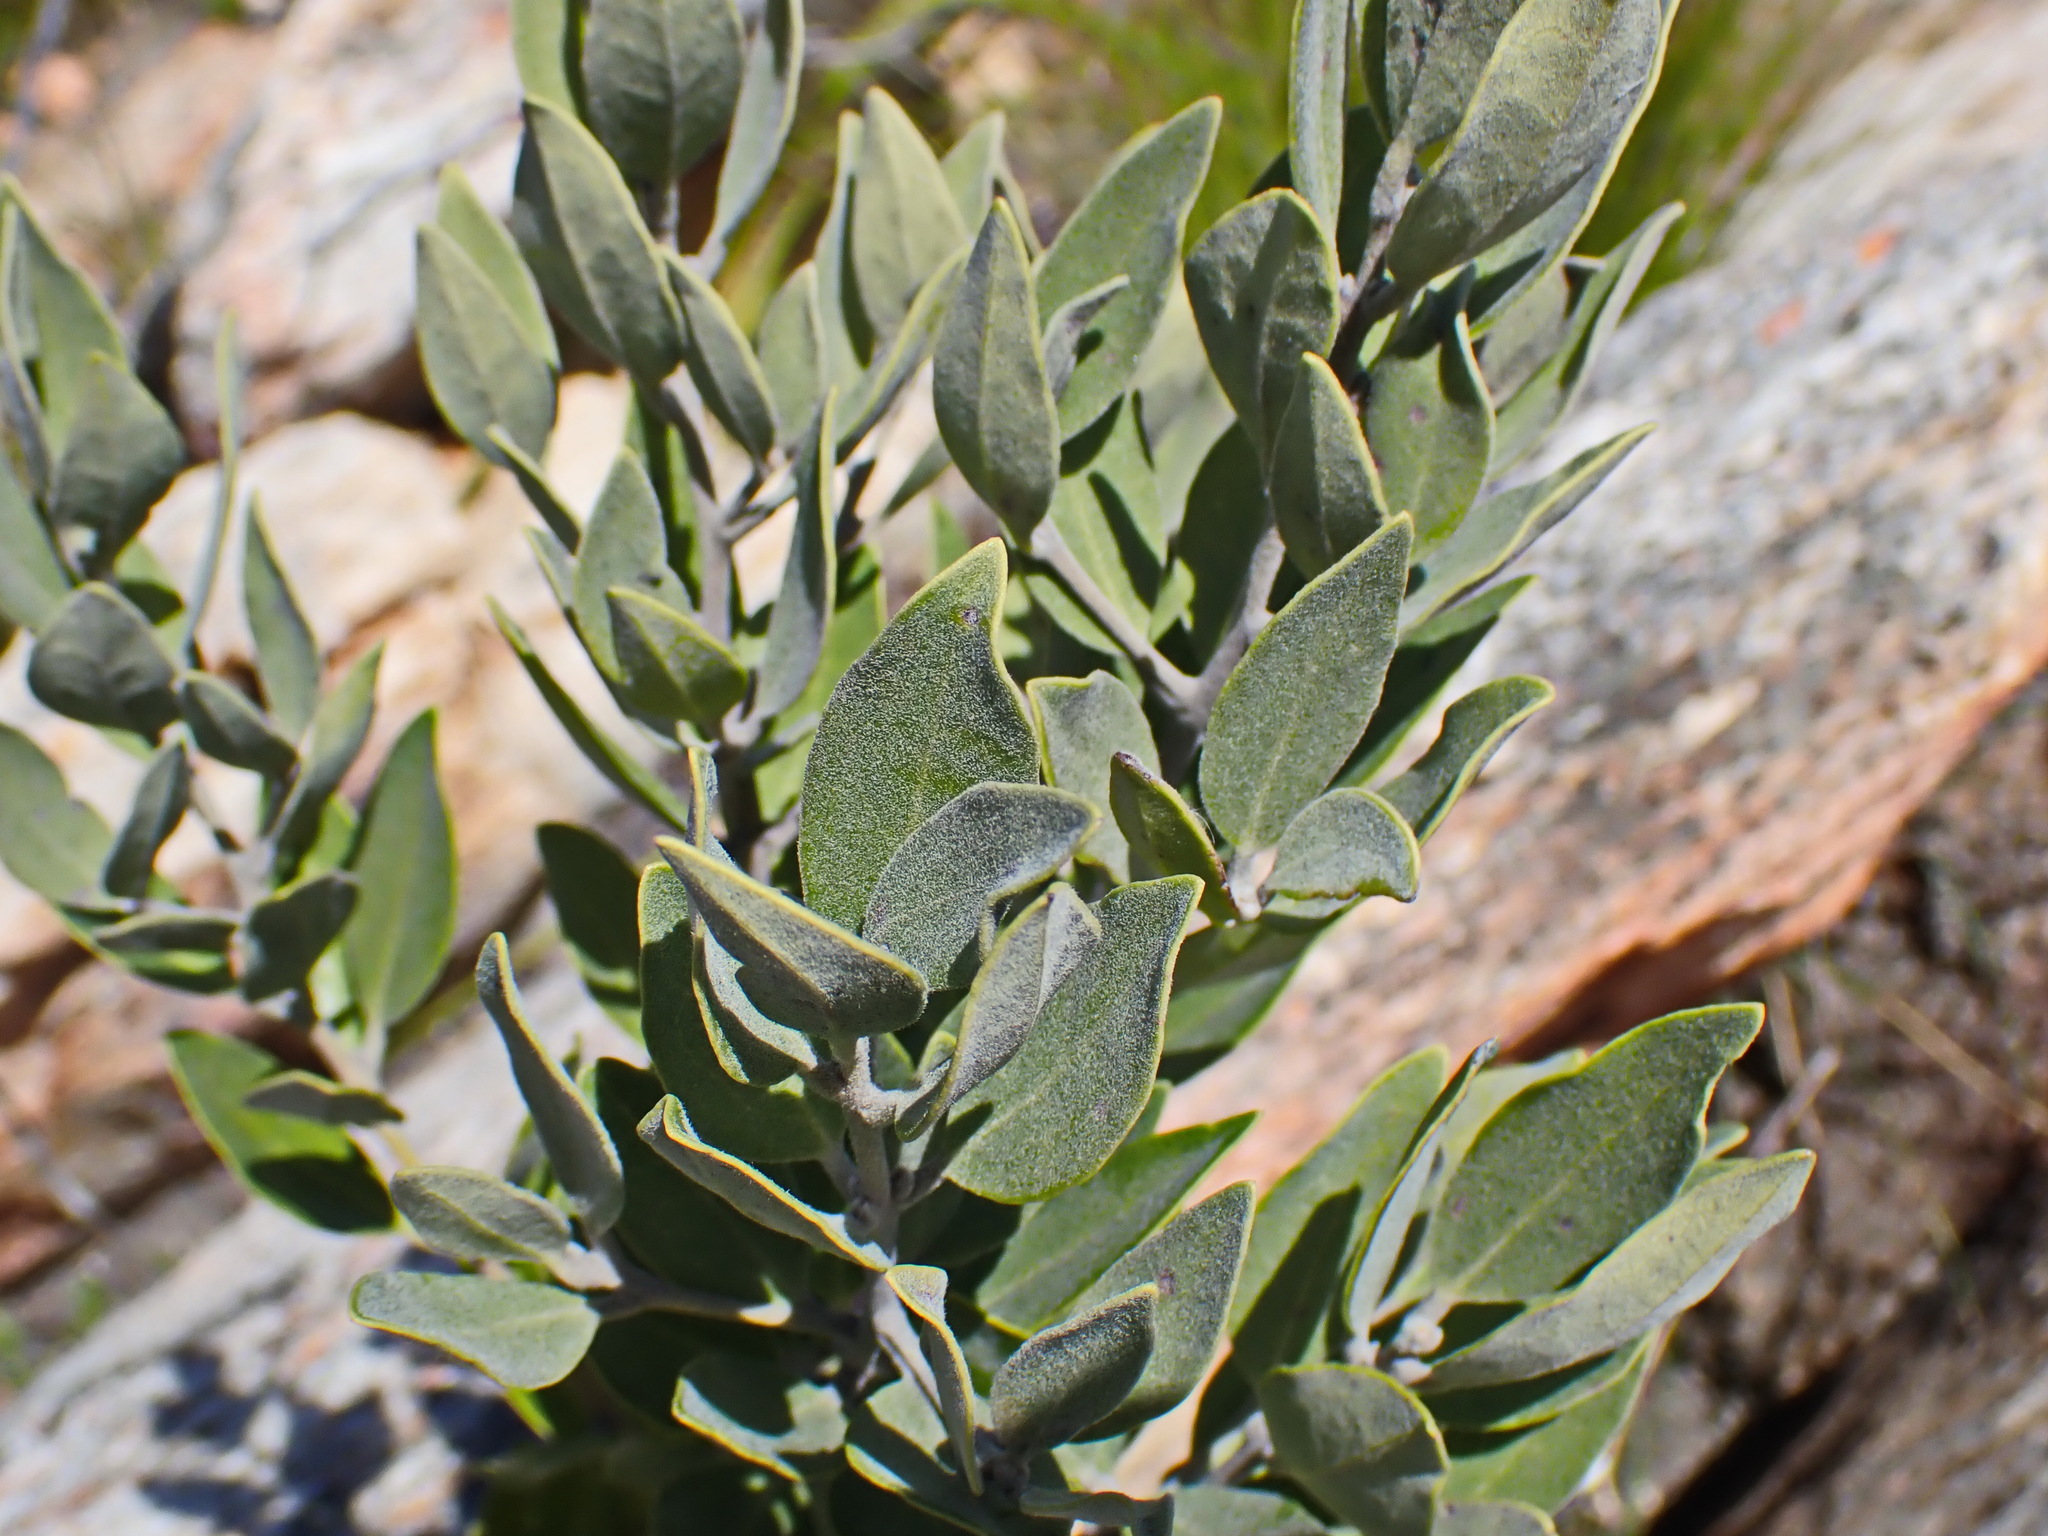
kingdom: Plantae
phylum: Tracheophyta
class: Magnoliopsida
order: Ericales
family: Ebenaceae
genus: Euclea
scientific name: Euclea polyandra
